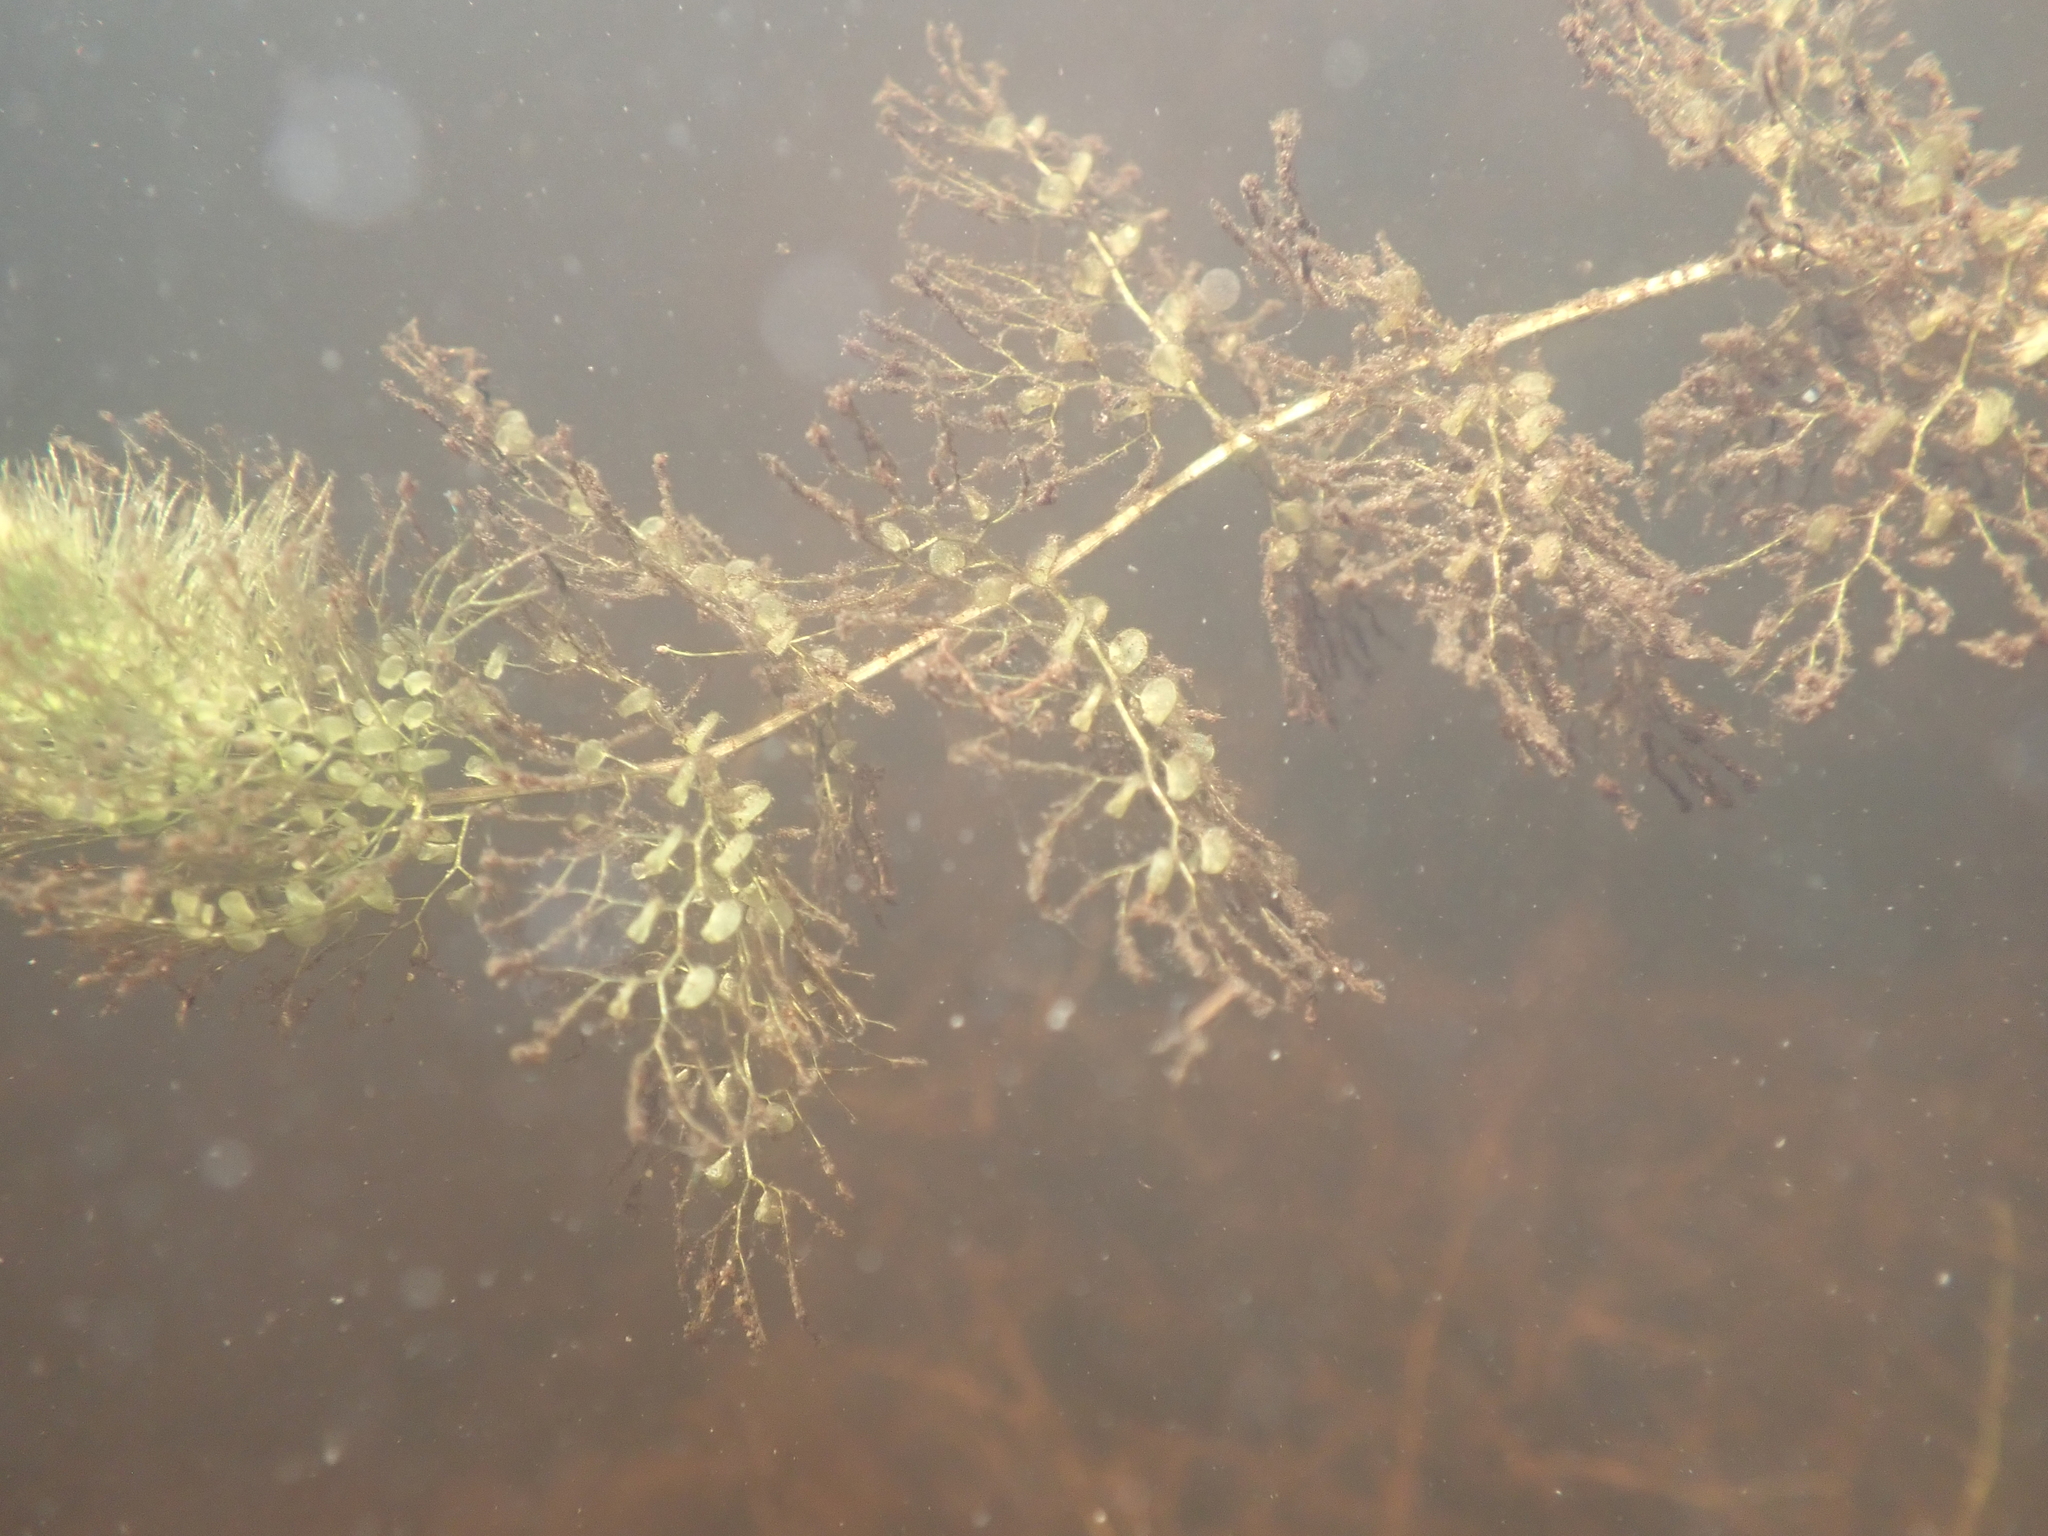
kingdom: Plantae
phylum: Tracheophyta
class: Magnoliopsida
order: Lamiales
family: Lentibulariaceae
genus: Utricularia
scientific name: Utricularia australis
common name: Bladderwort
